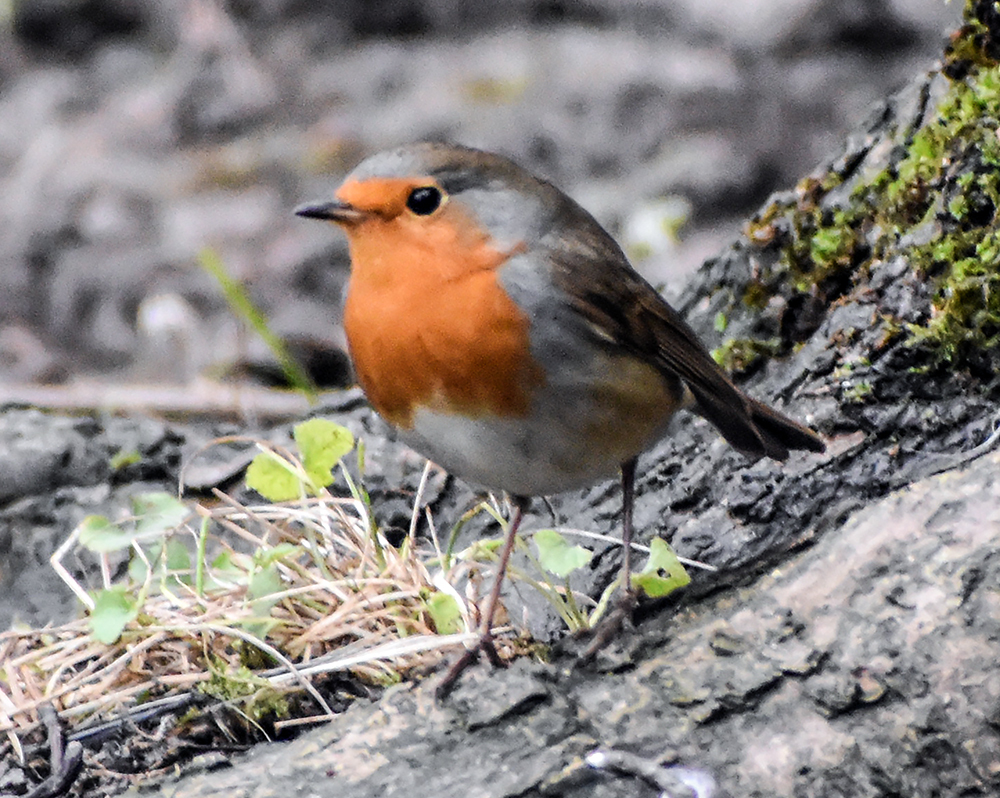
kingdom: Animalia
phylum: Chordata
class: Aves
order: Passeriformes
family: Muscicapidae
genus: Erithacus
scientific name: Erithacus rubecula
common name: European robin
